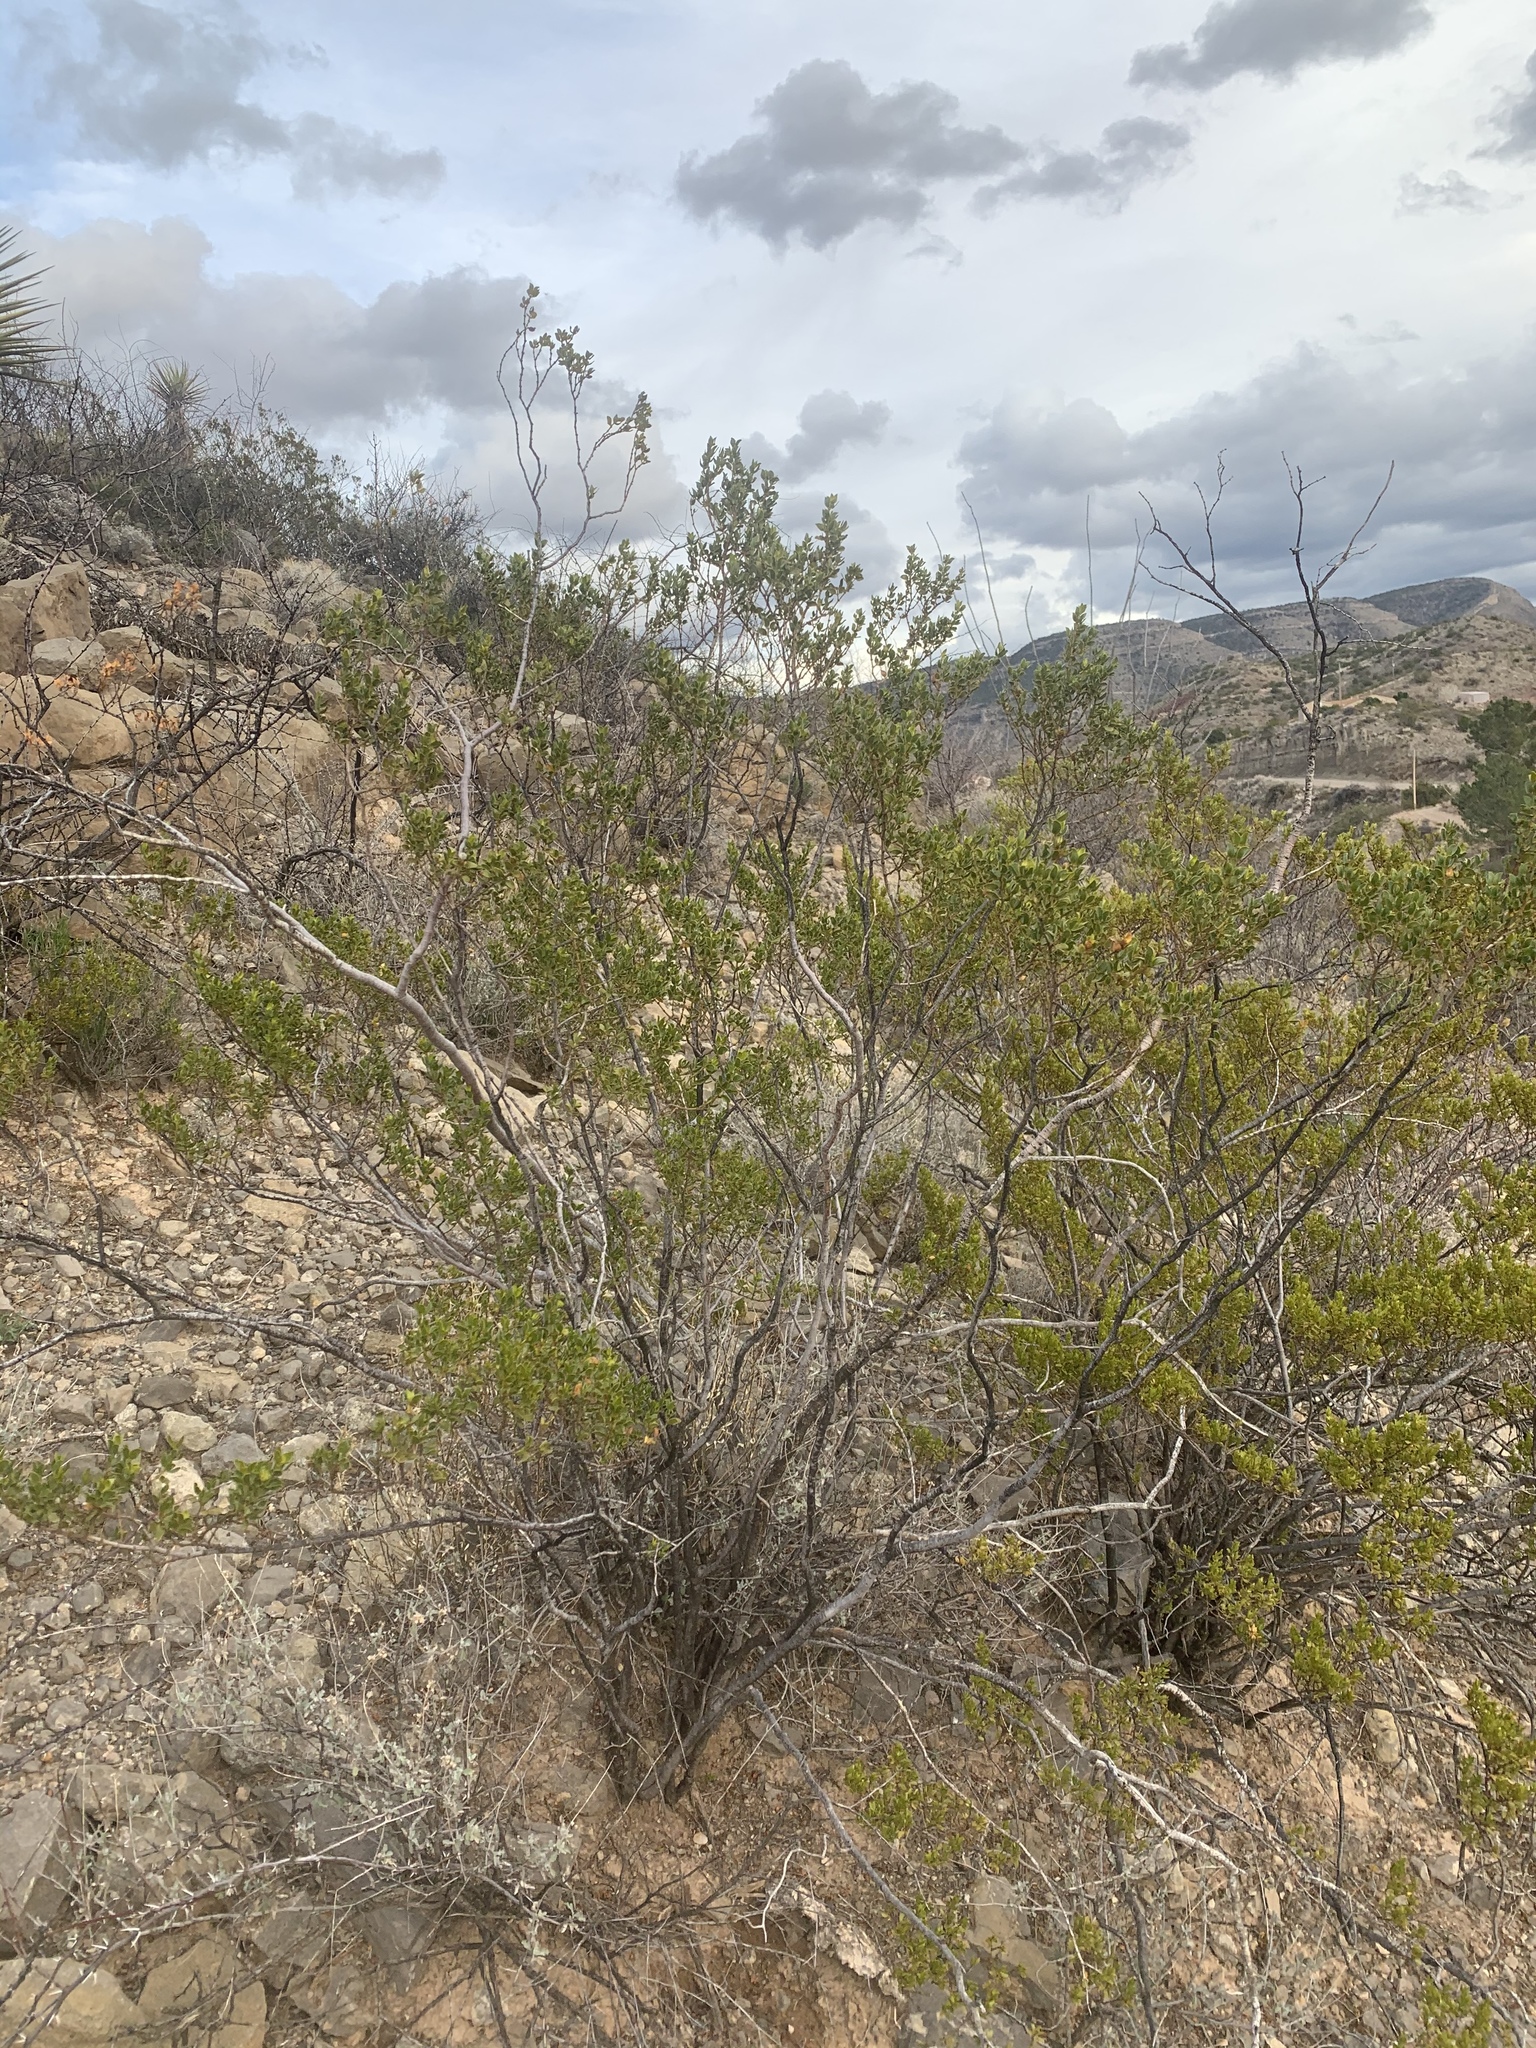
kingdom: Plantae
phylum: Tracheophyta
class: Magnoliopsida
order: Zygophyllales
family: Zygophyllaceae
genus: Larrea
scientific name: Larrea tridentata
